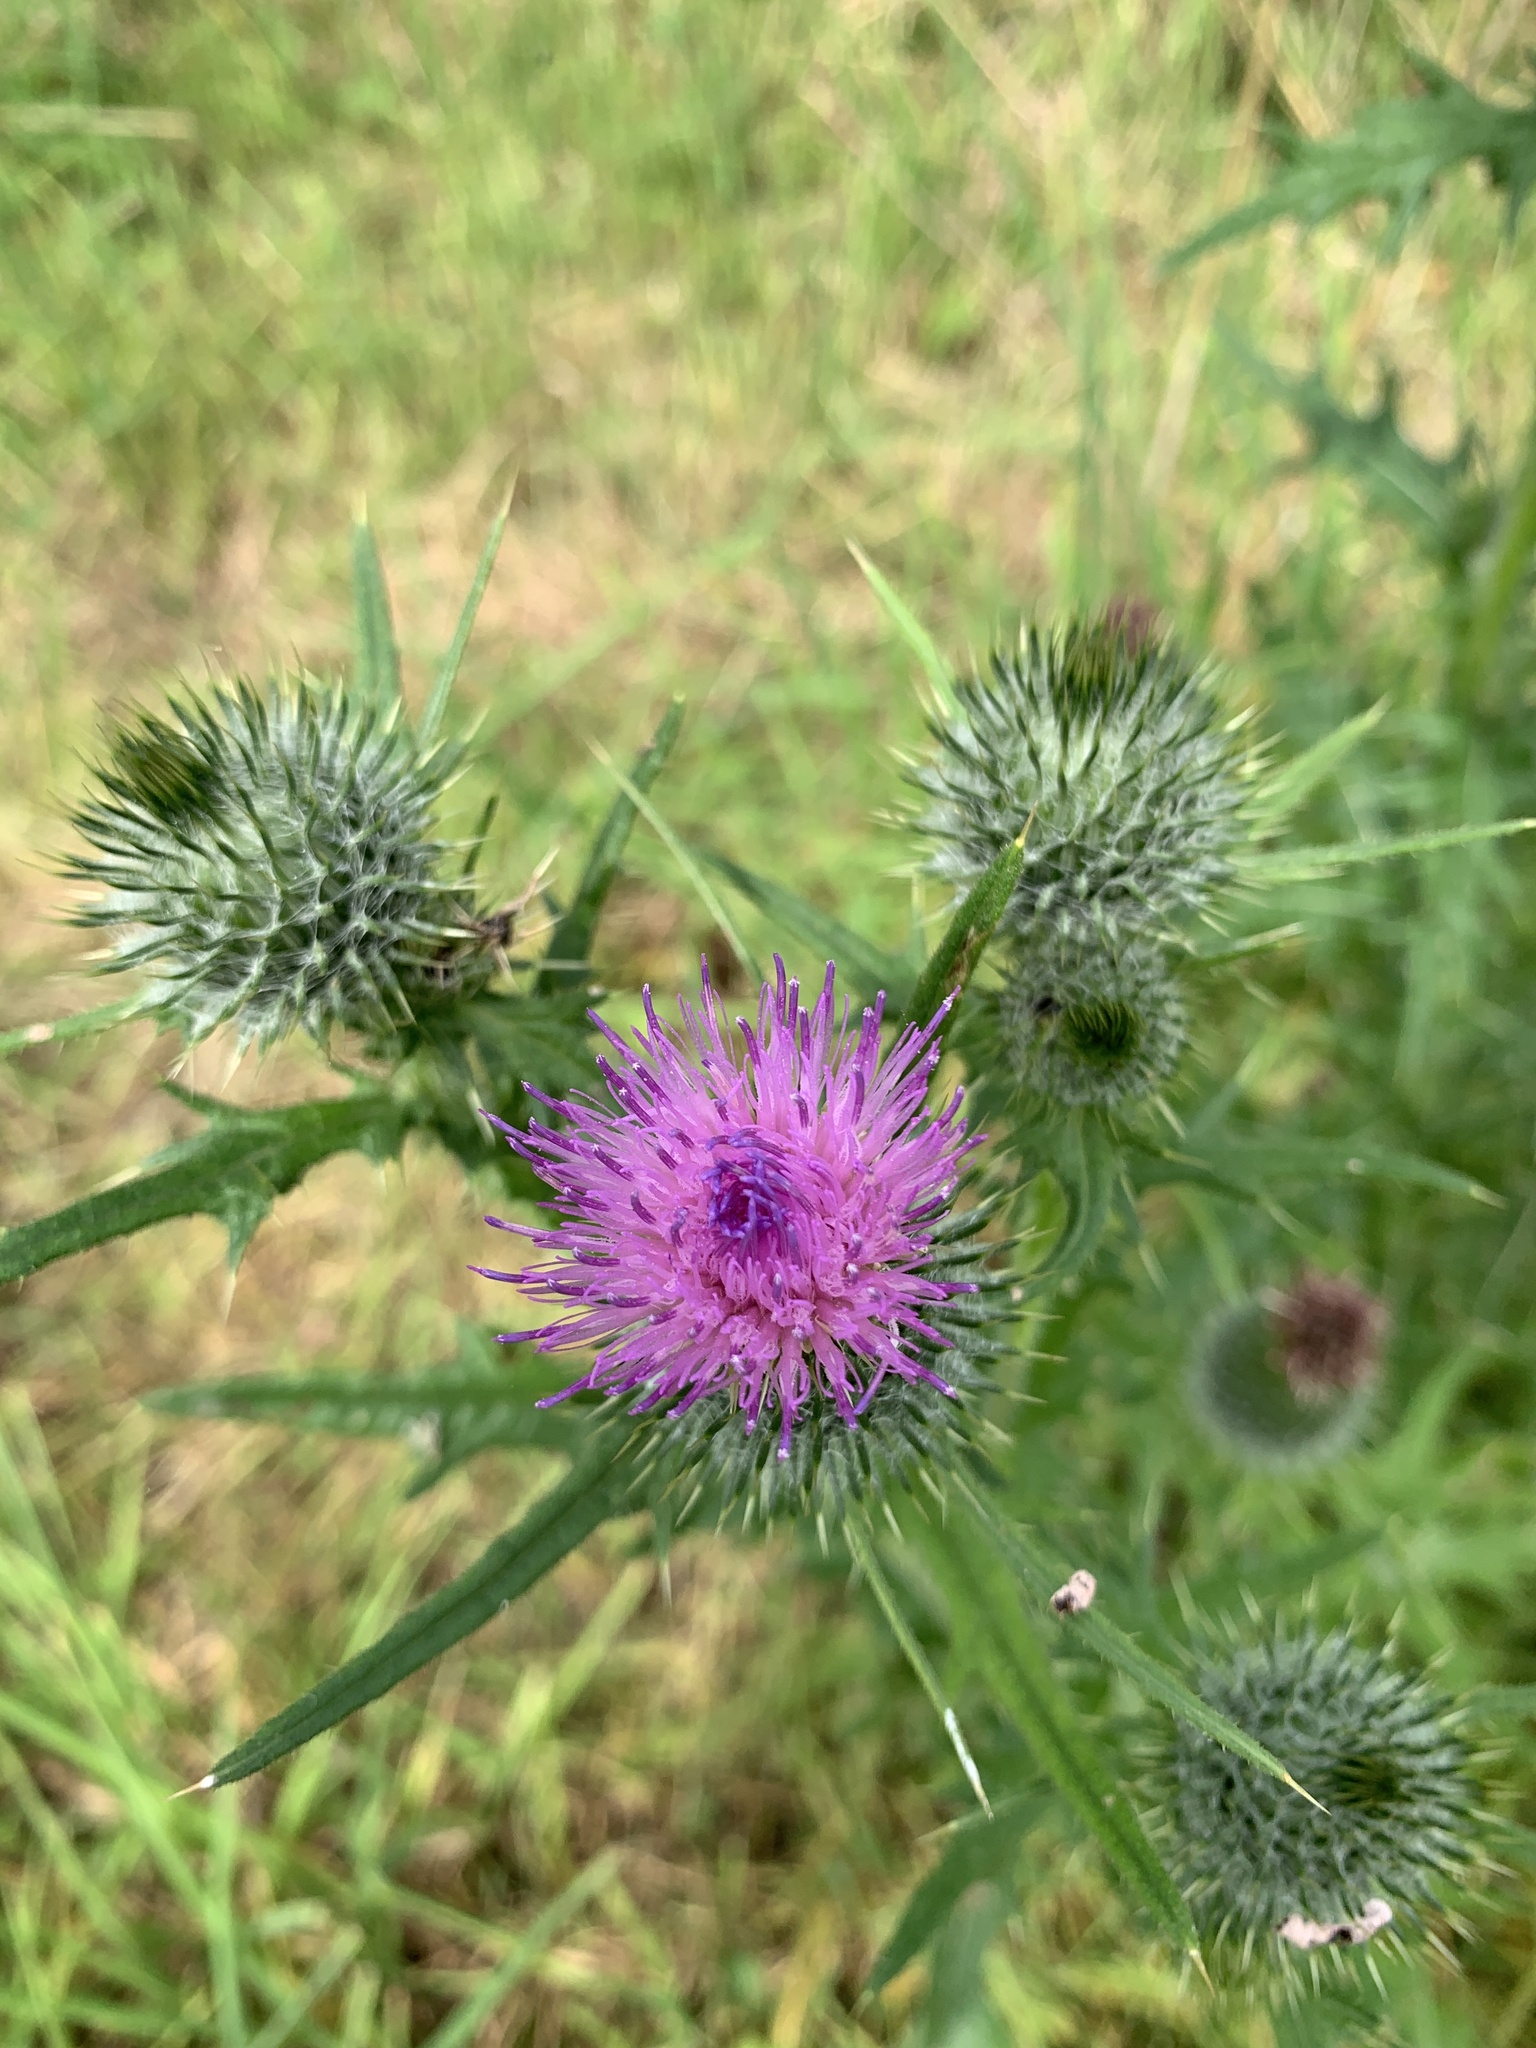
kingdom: Plantae
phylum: Tracheophyta
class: Magnoliopsida
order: Asterales
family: Asteraceae
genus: Cirsium
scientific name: Cirsium vulgare
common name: Bull thistle
